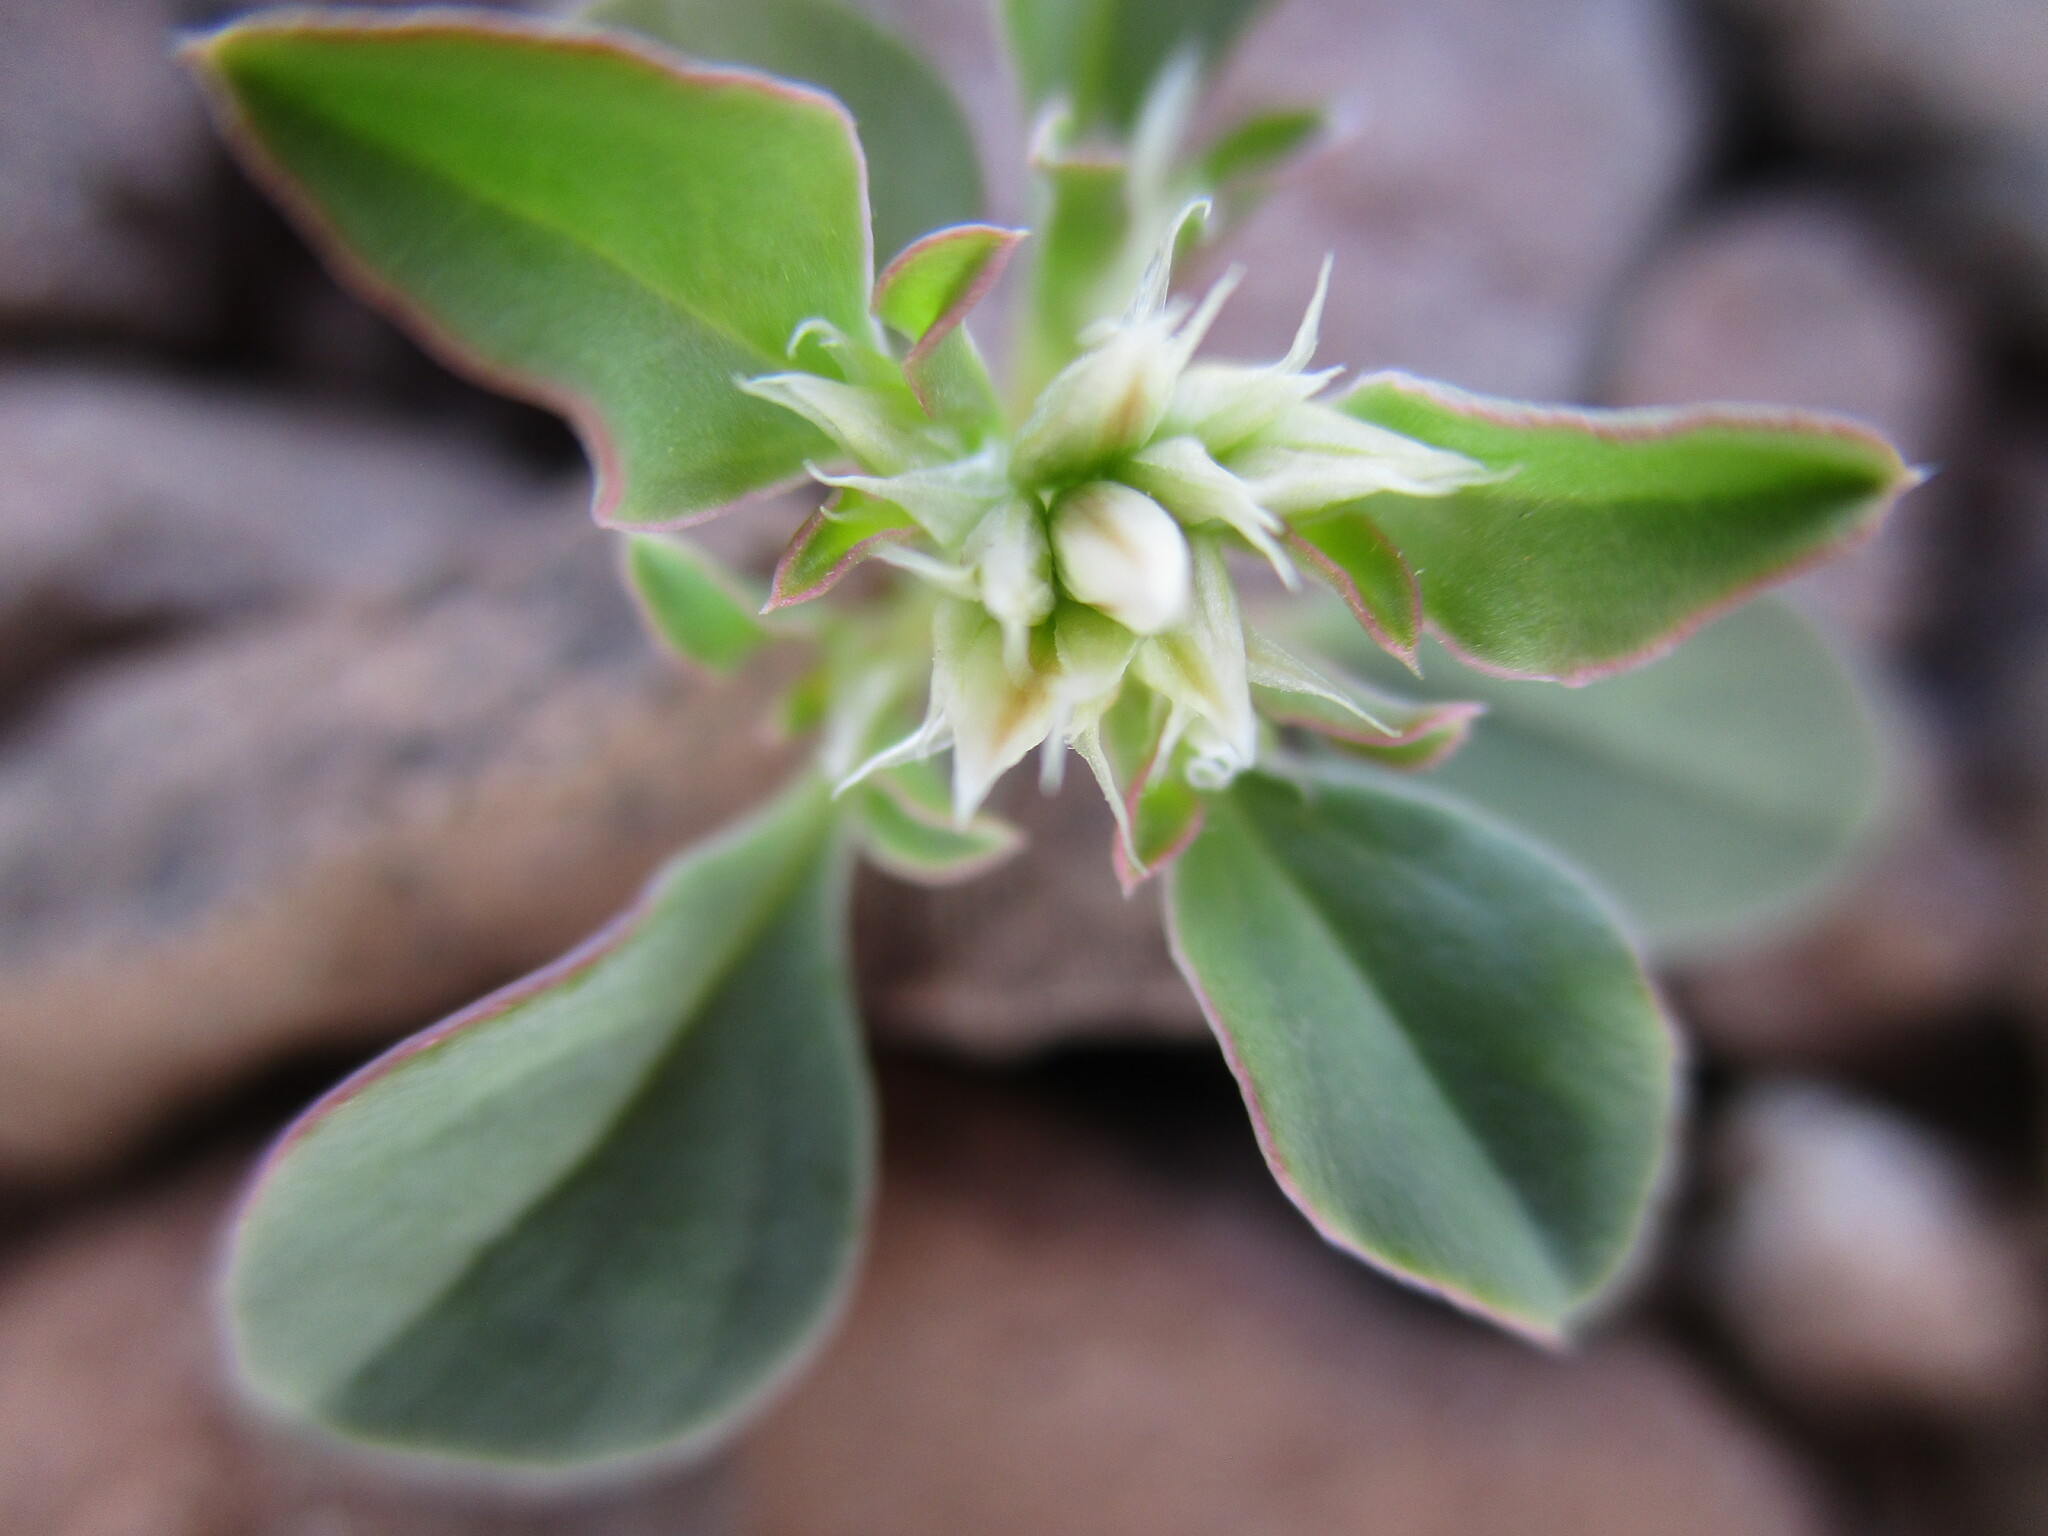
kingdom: Plantae
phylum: Tracheophyta
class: Magnoliopsida
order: Caryophyllales
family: Amaranthaceae
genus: Hermbstaedtia
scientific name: Hermbstaedtia spathulifolia
